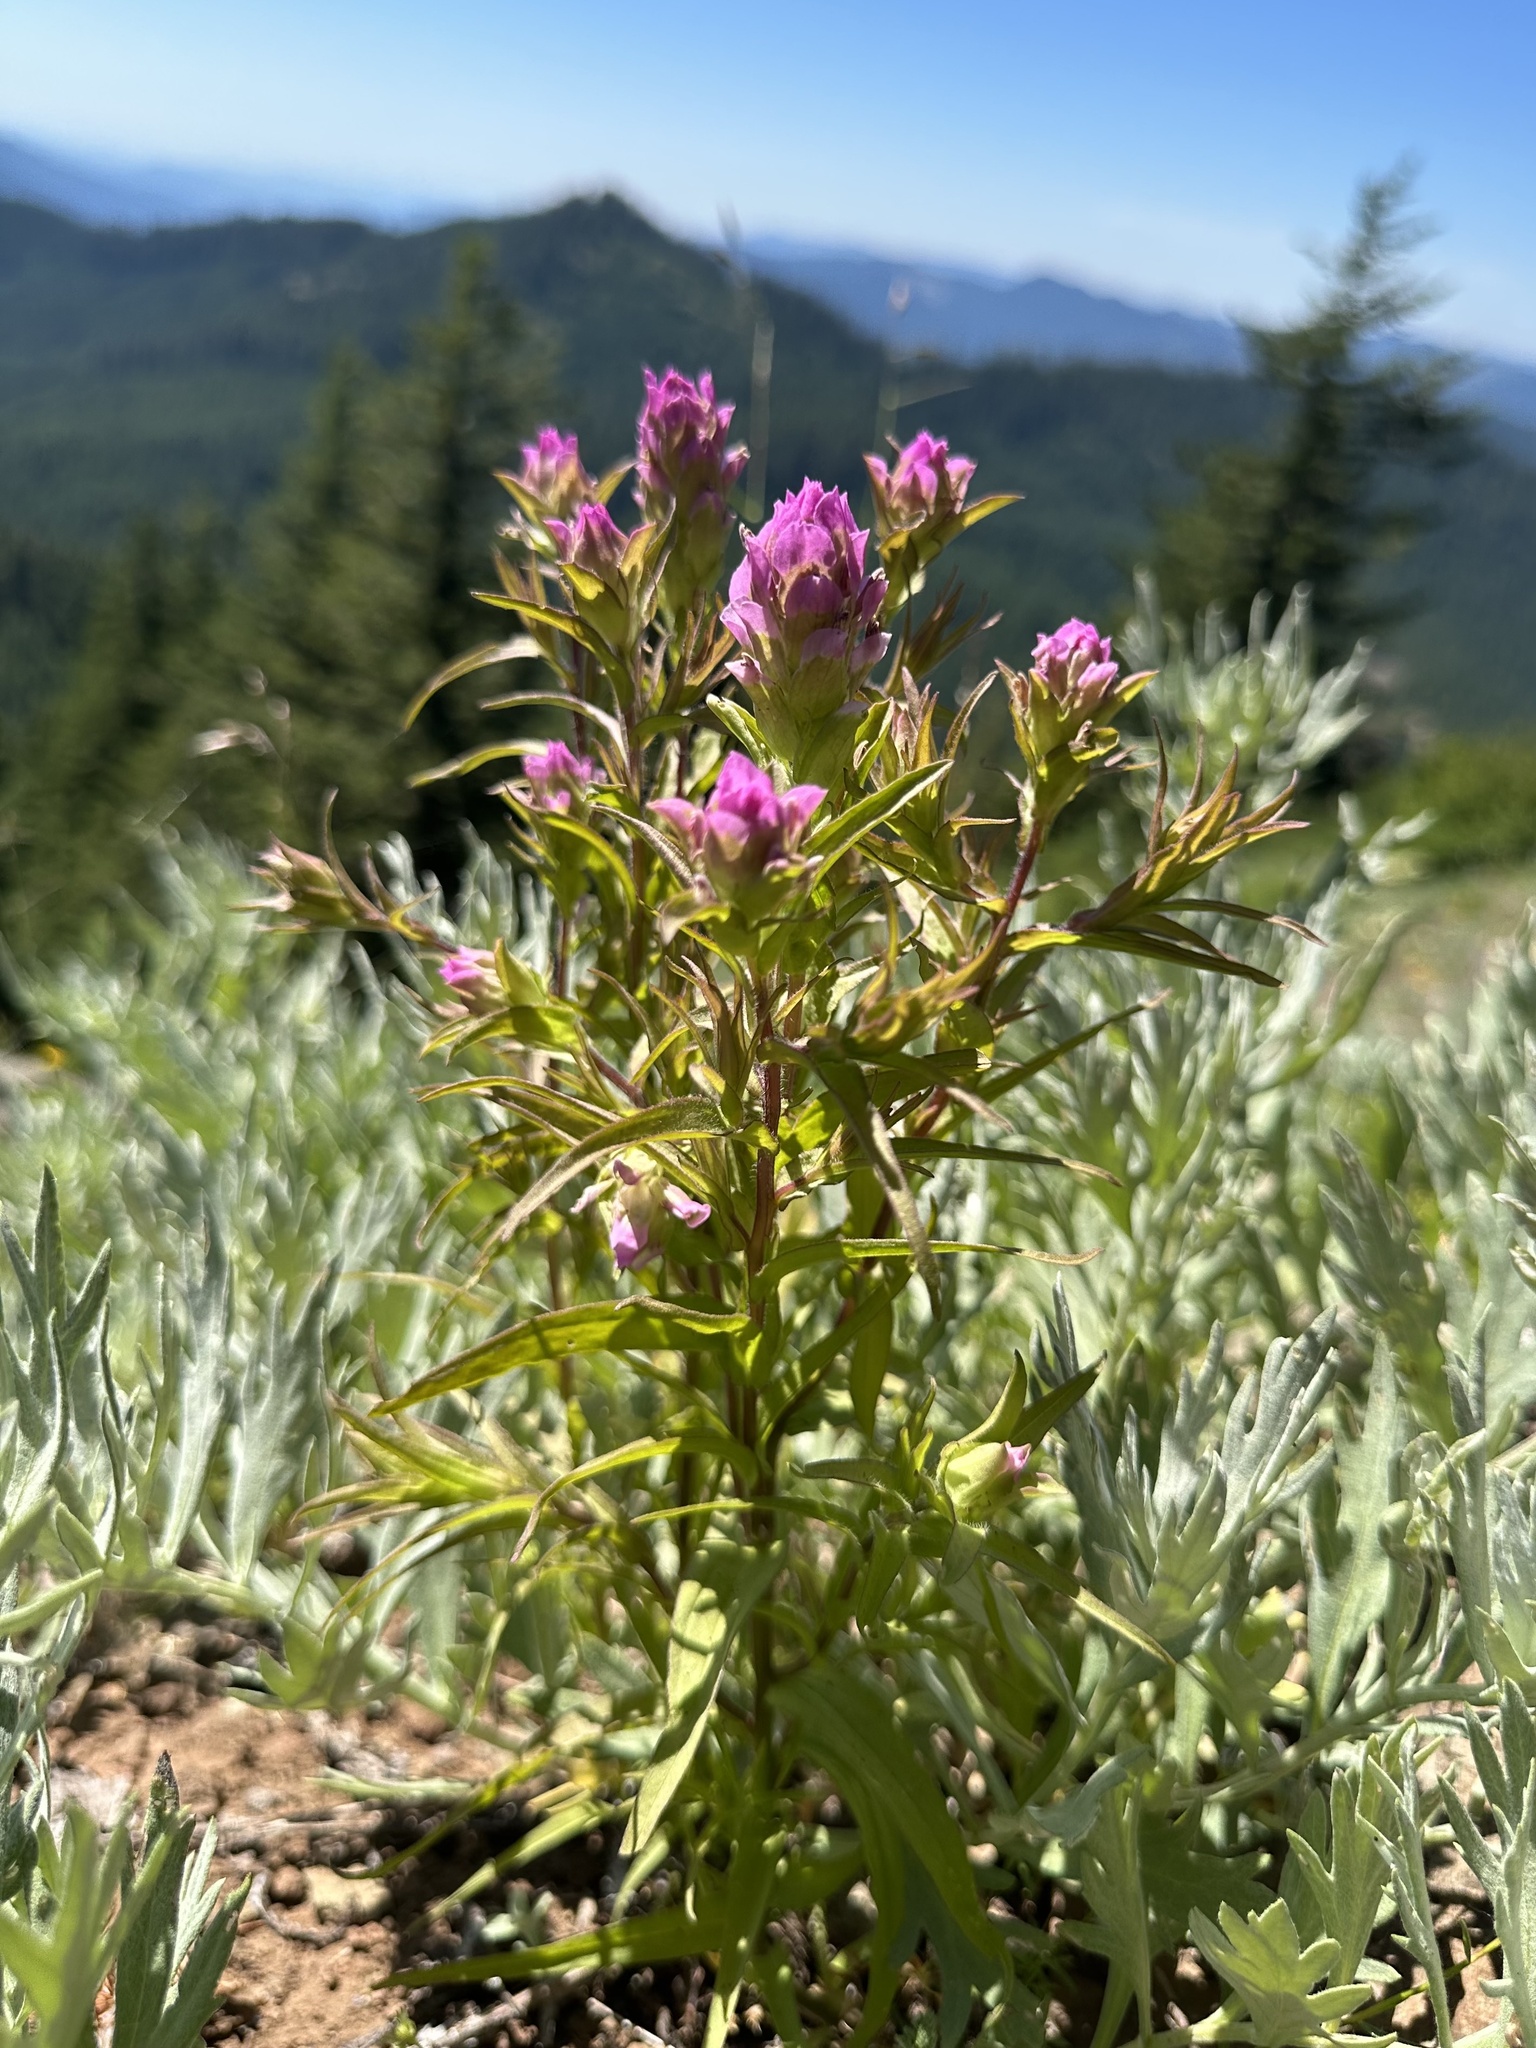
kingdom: Plantae
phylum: Tracheophyta
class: Magnoliopsida
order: Lamiales
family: Orobanchaceae
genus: Orthocarpus
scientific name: Orthocarpus imbricatus
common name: Mountain owl's-clover
